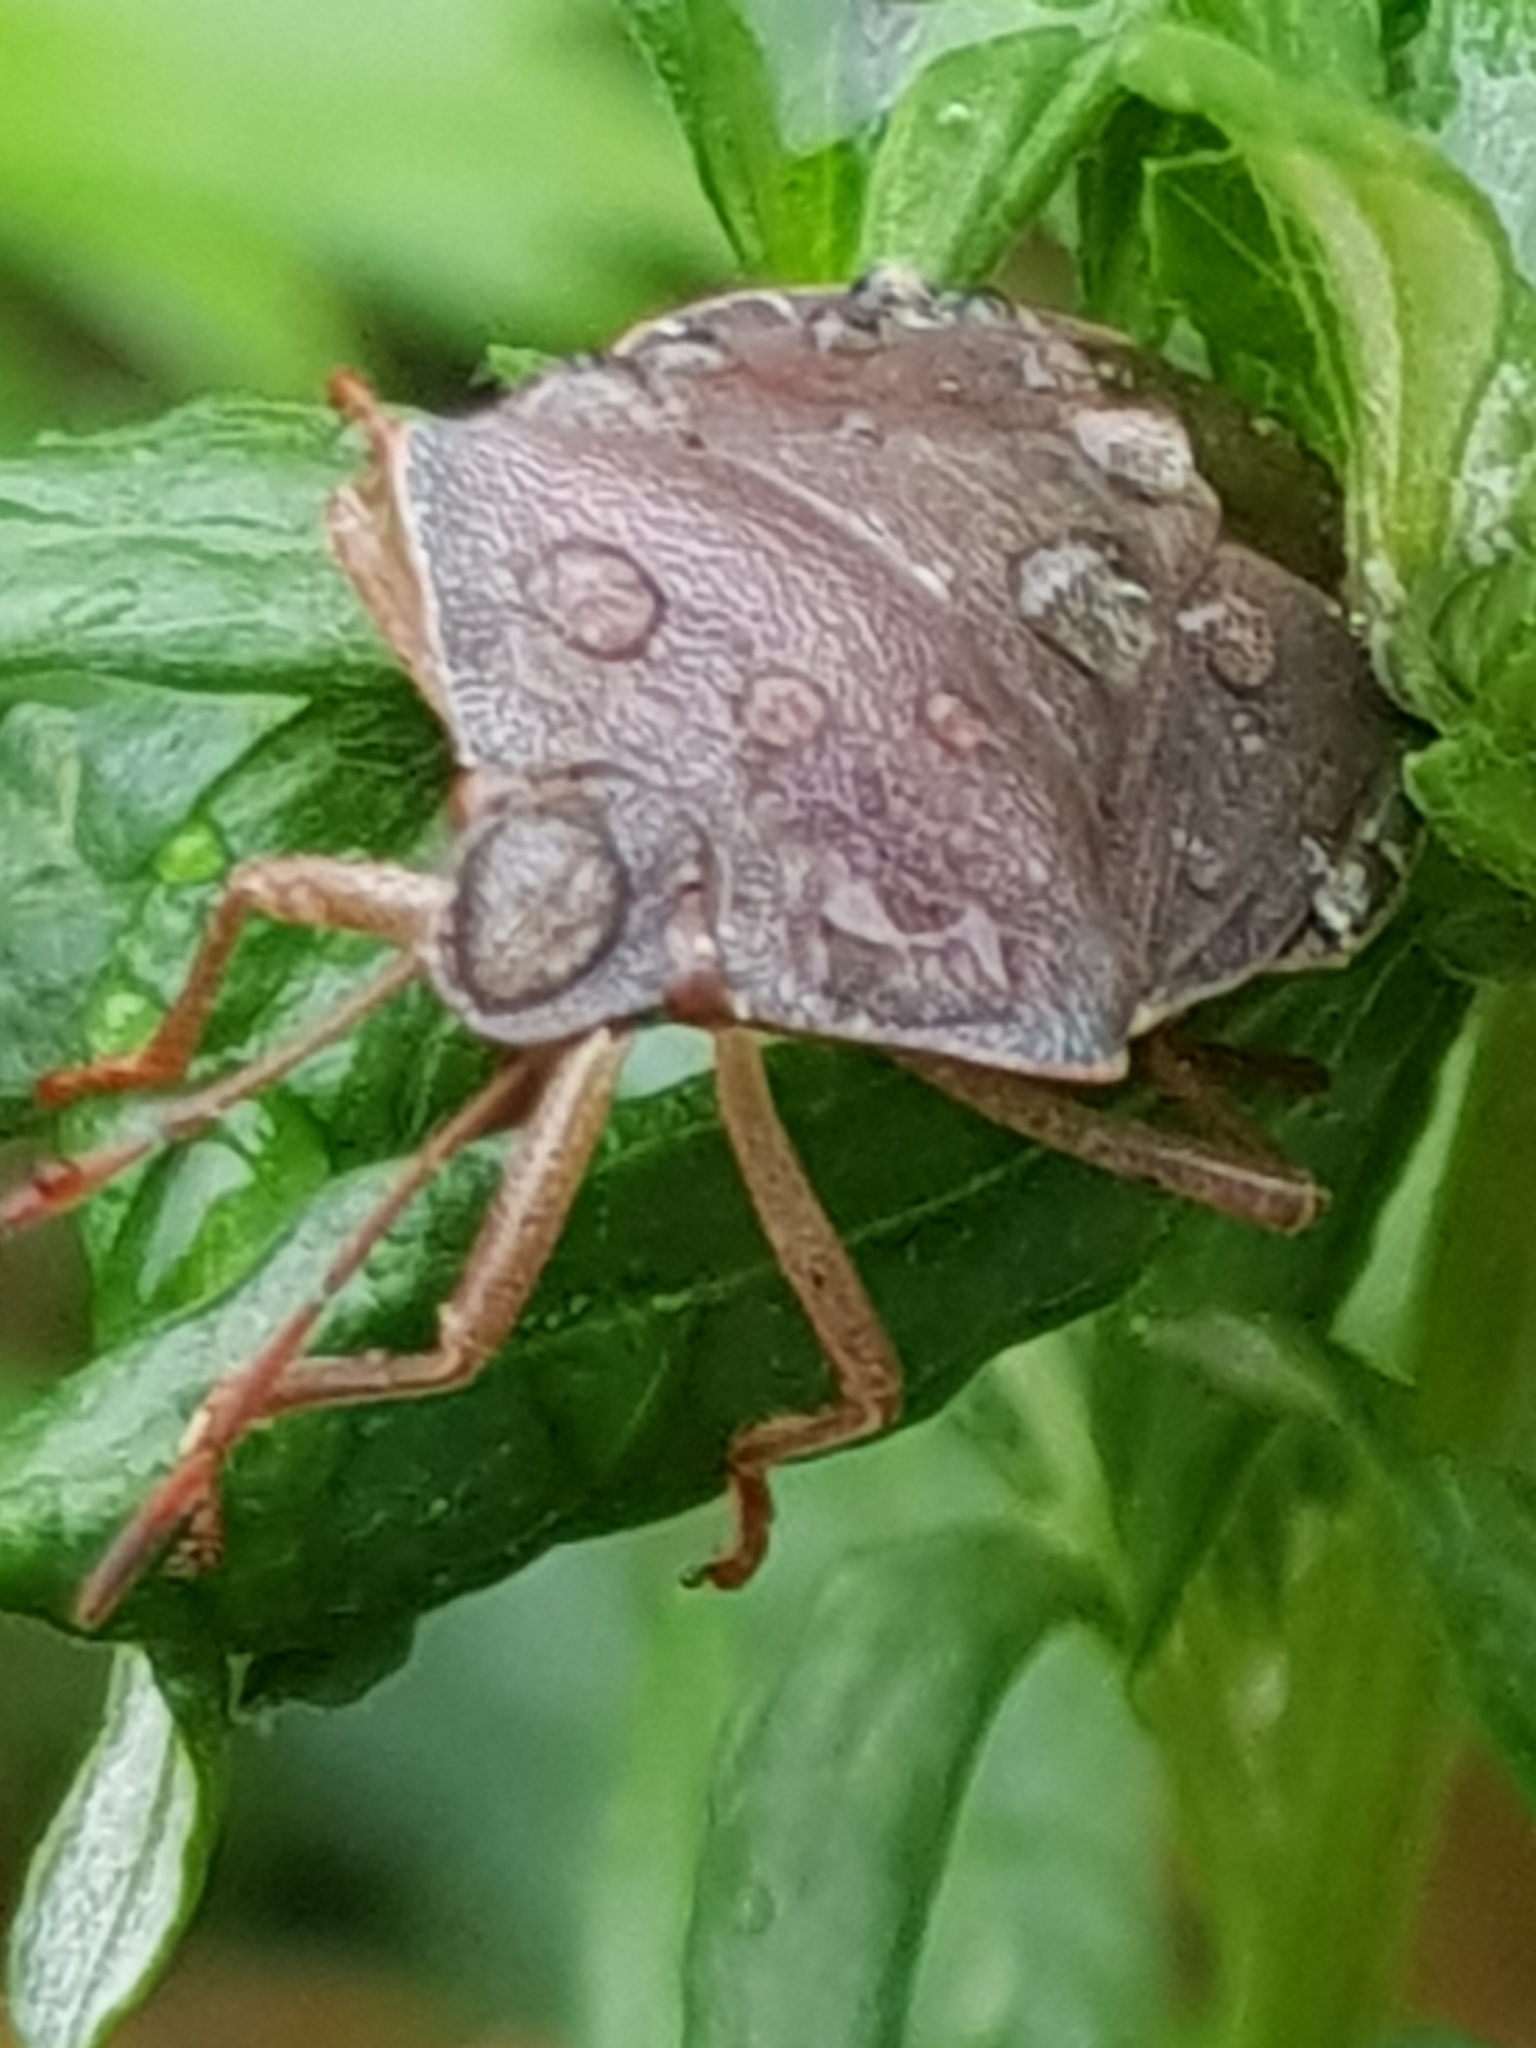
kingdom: Animalia
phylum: Arthropoda
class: Insecta
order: Hemiptera
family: Pentatomidae
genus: Palomena
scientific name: Palomena prasina
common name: Green shieldbug
